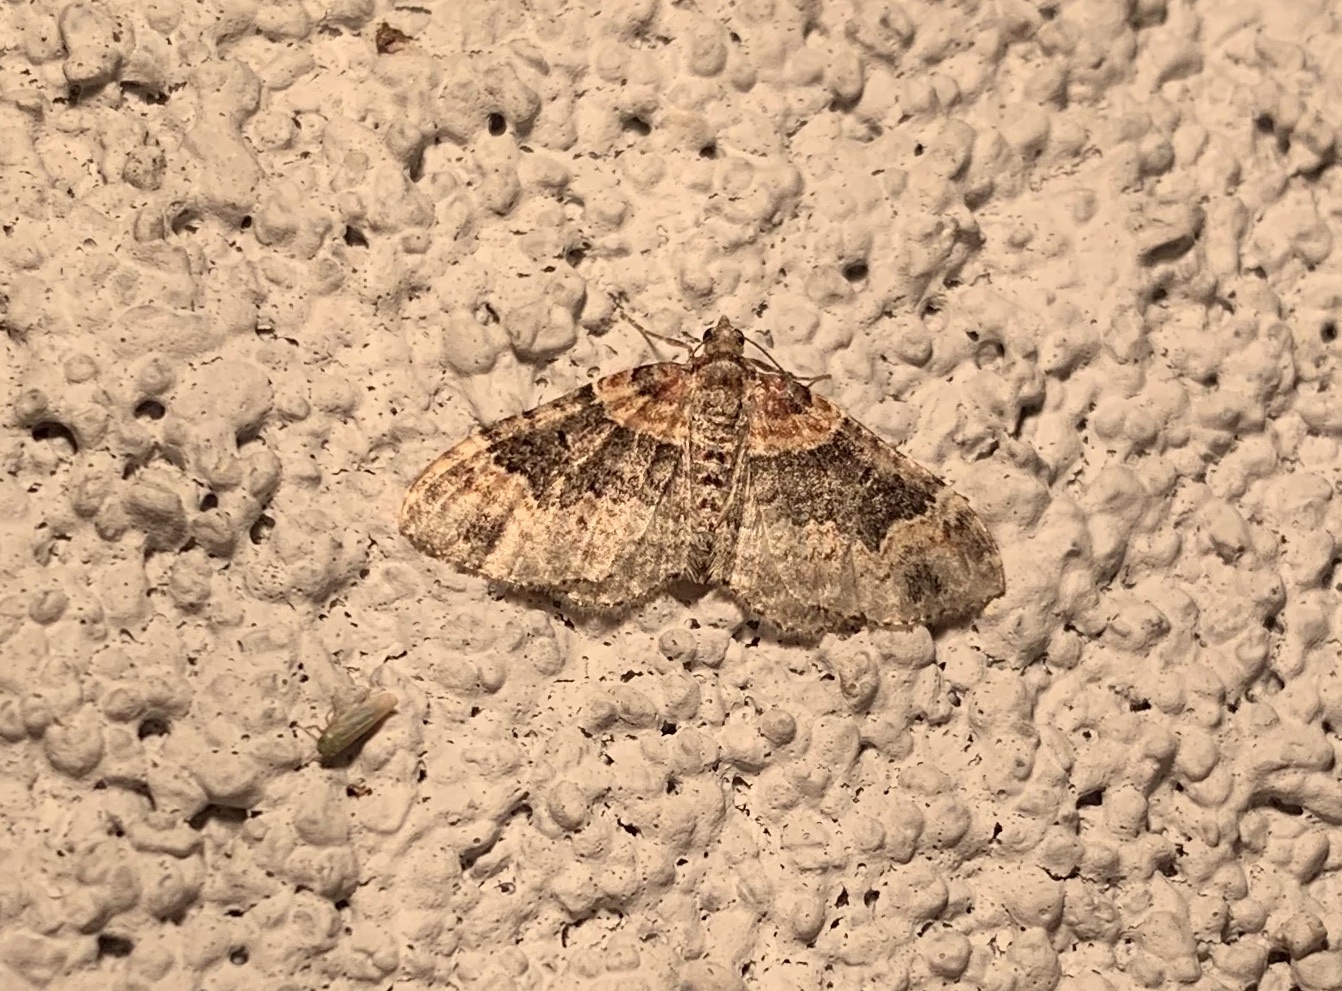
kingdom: Animalia
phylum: Arthropoda
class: Insecta
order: Lepidoptera
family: Geometridae
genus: Xanthorhoe
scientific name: Xanthorhoe ferrugata
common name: Dark-barred twin-spot carpet
